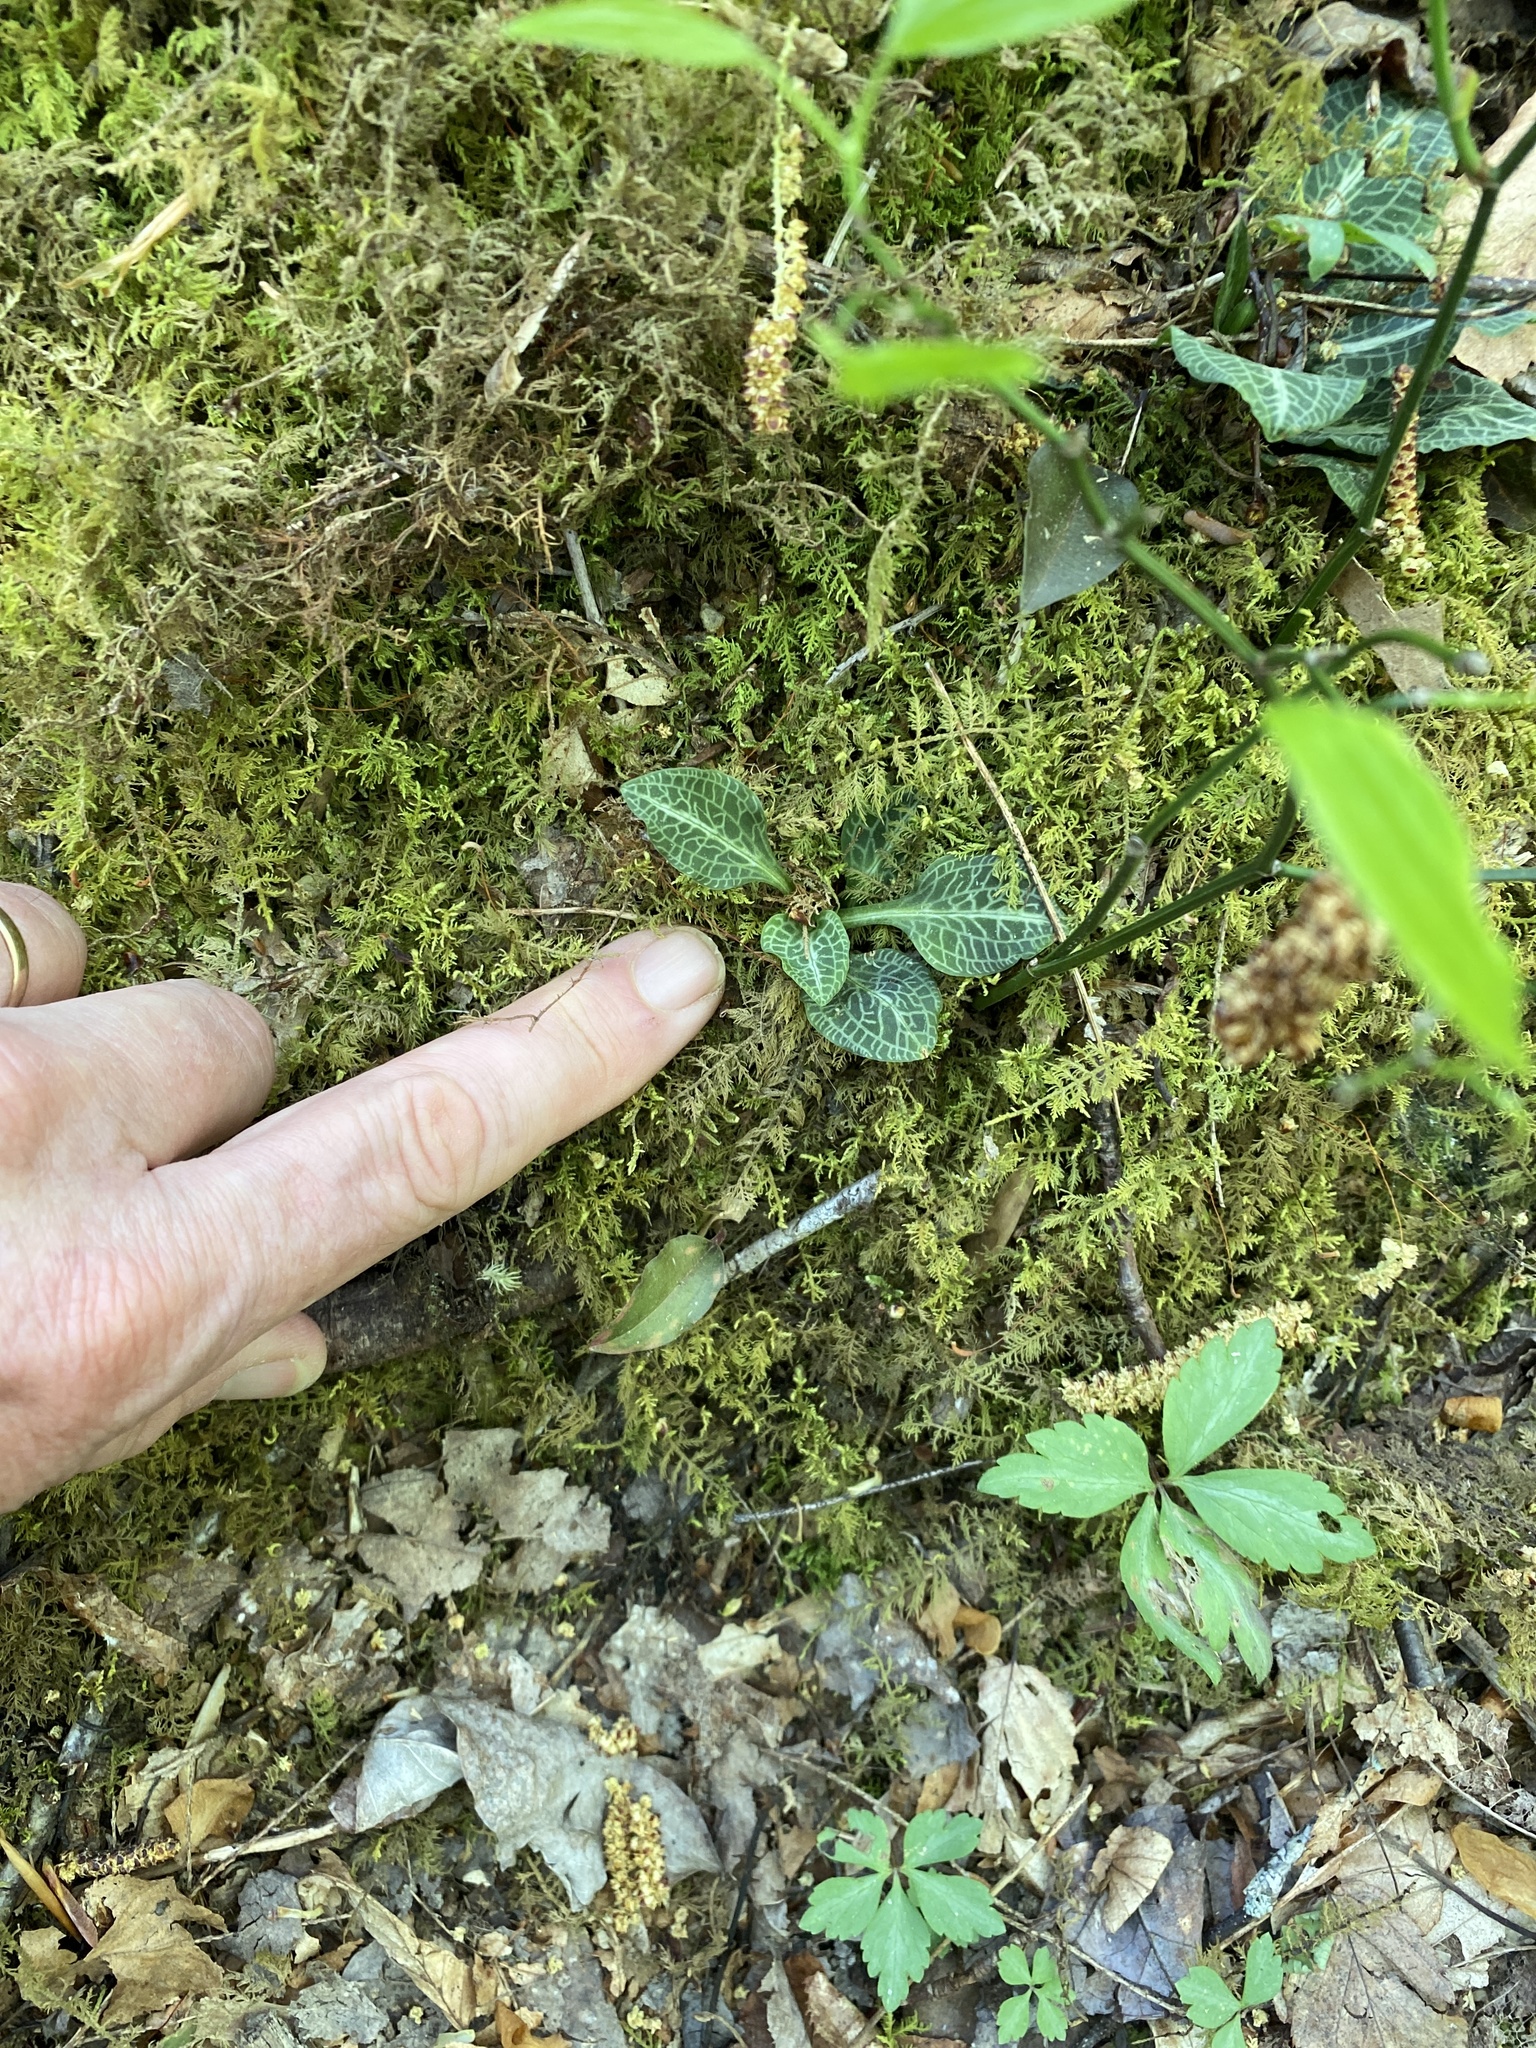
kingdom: Plantae
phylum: Tracheophyta
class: Liliopsida
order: Asparagales
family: Orchidaceae
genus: Goodyera
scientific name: Goodyera pubescens
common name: Downy rattlesnake-plantain
